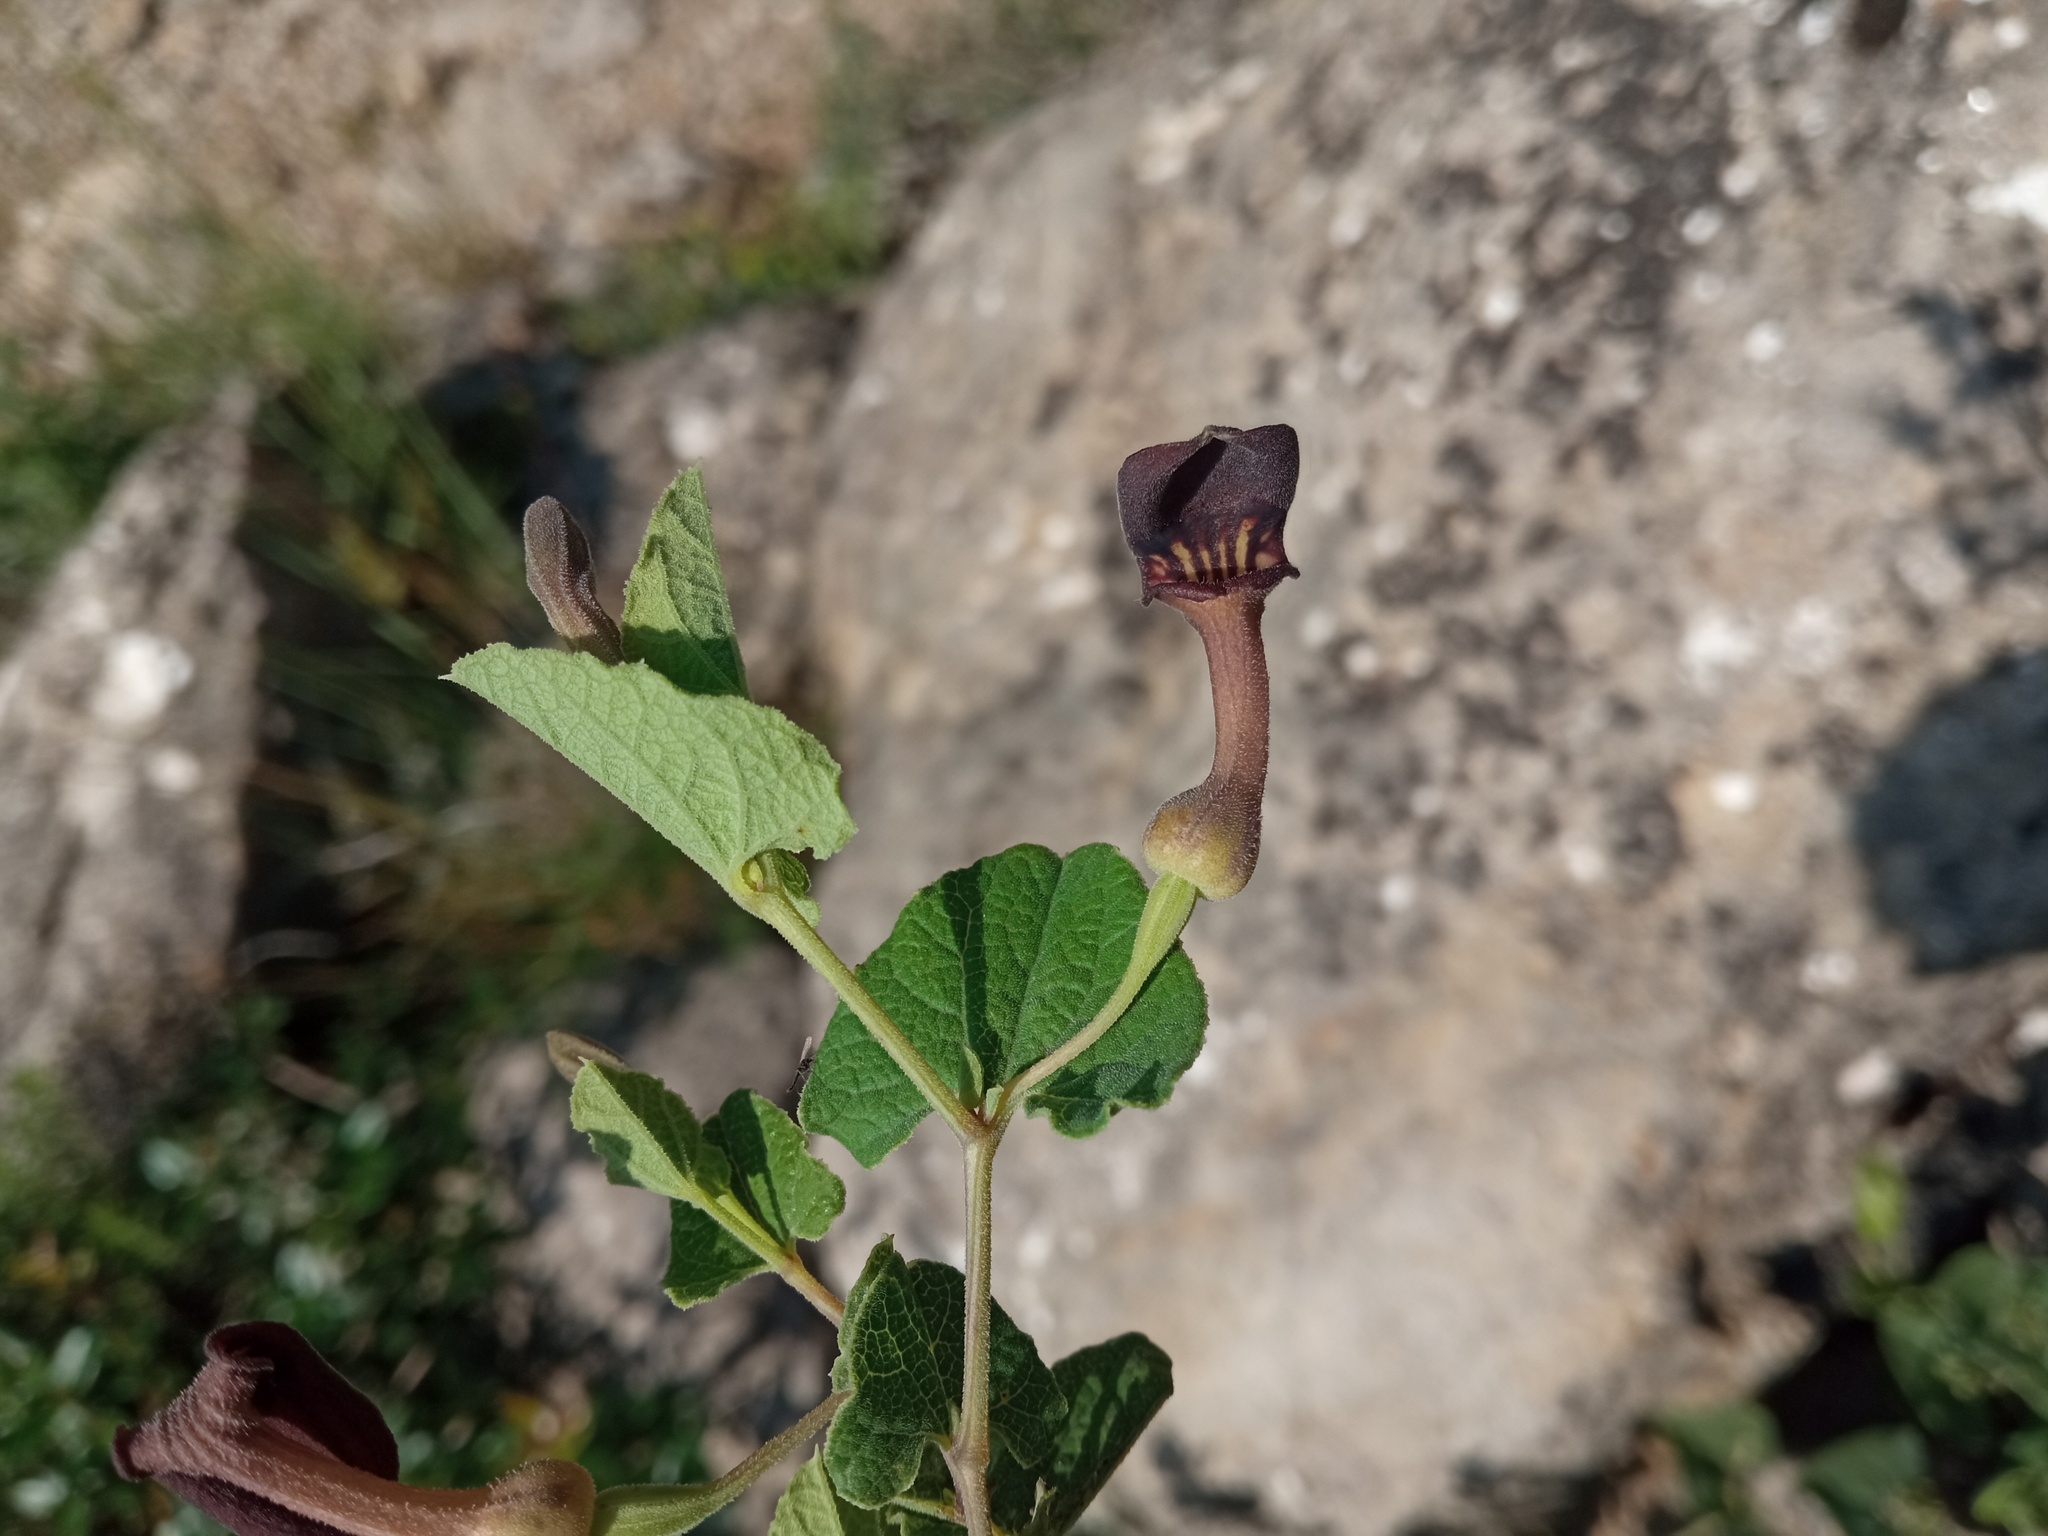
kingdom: Plantae
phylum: Tracheophyta
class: Magnoliopsida
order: Piperales
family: Aristolochiaceae
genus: Aristolochia
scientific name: Aristolochia pistolochia
